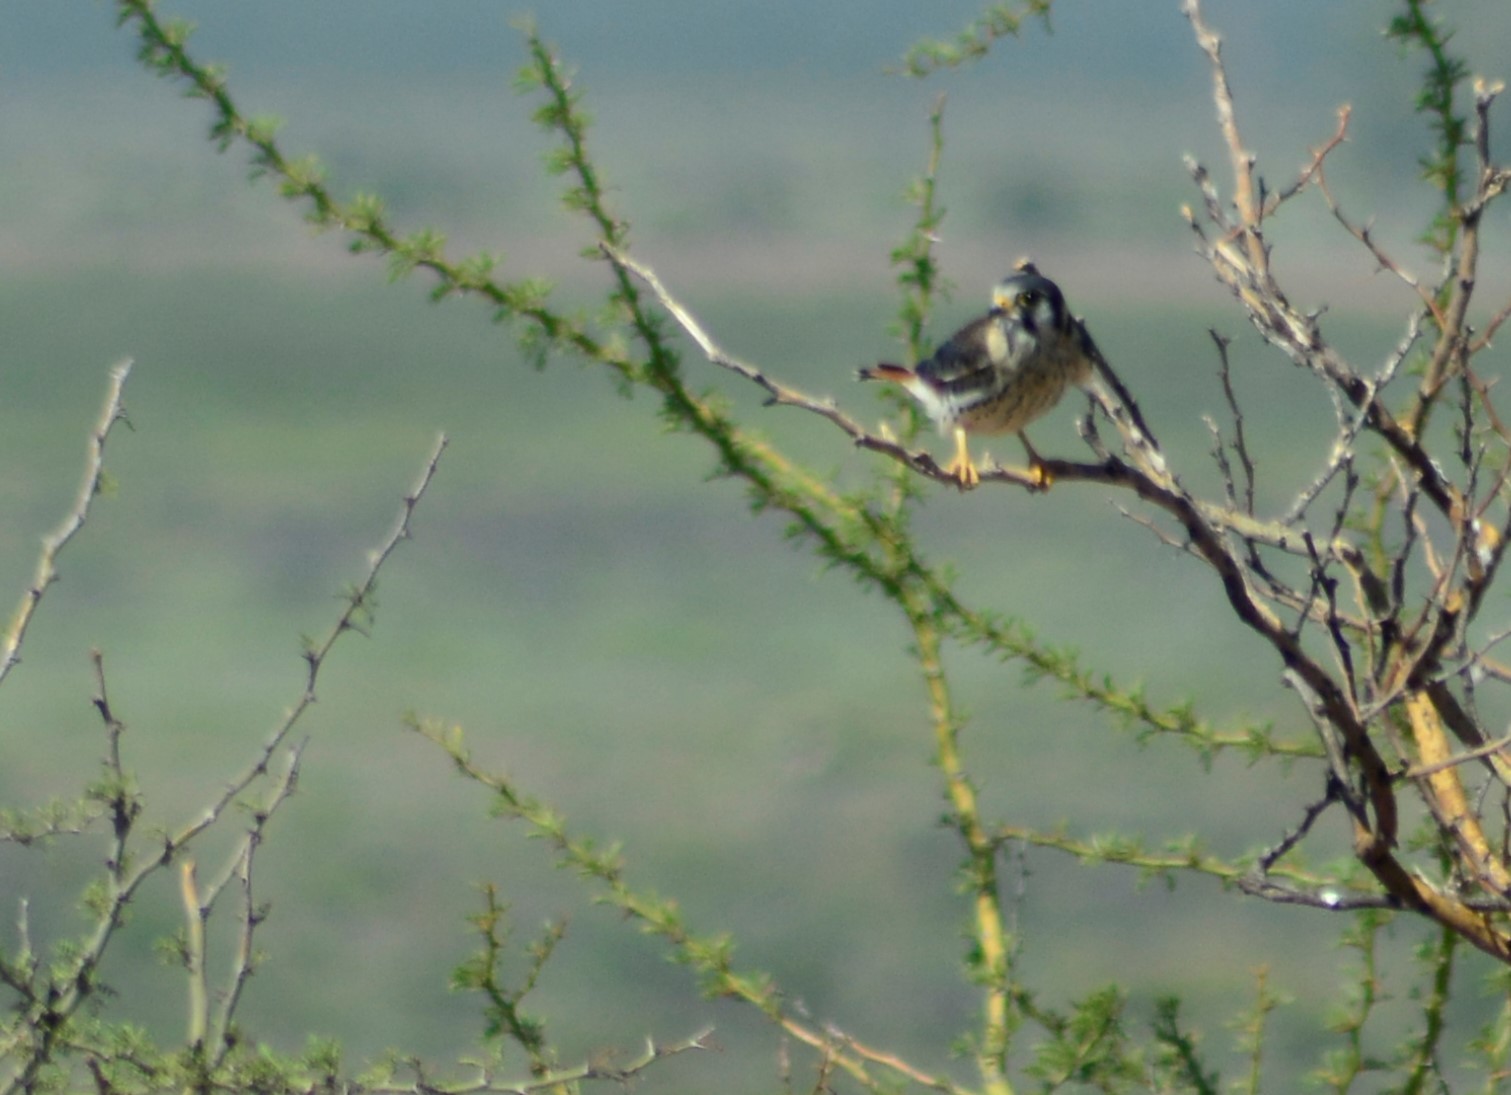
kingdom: Animalia
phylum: Chordata
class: Aves
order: Falconiformes
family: Falconidae
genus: Falco
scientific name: Falco sparverius
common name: American kestrel
